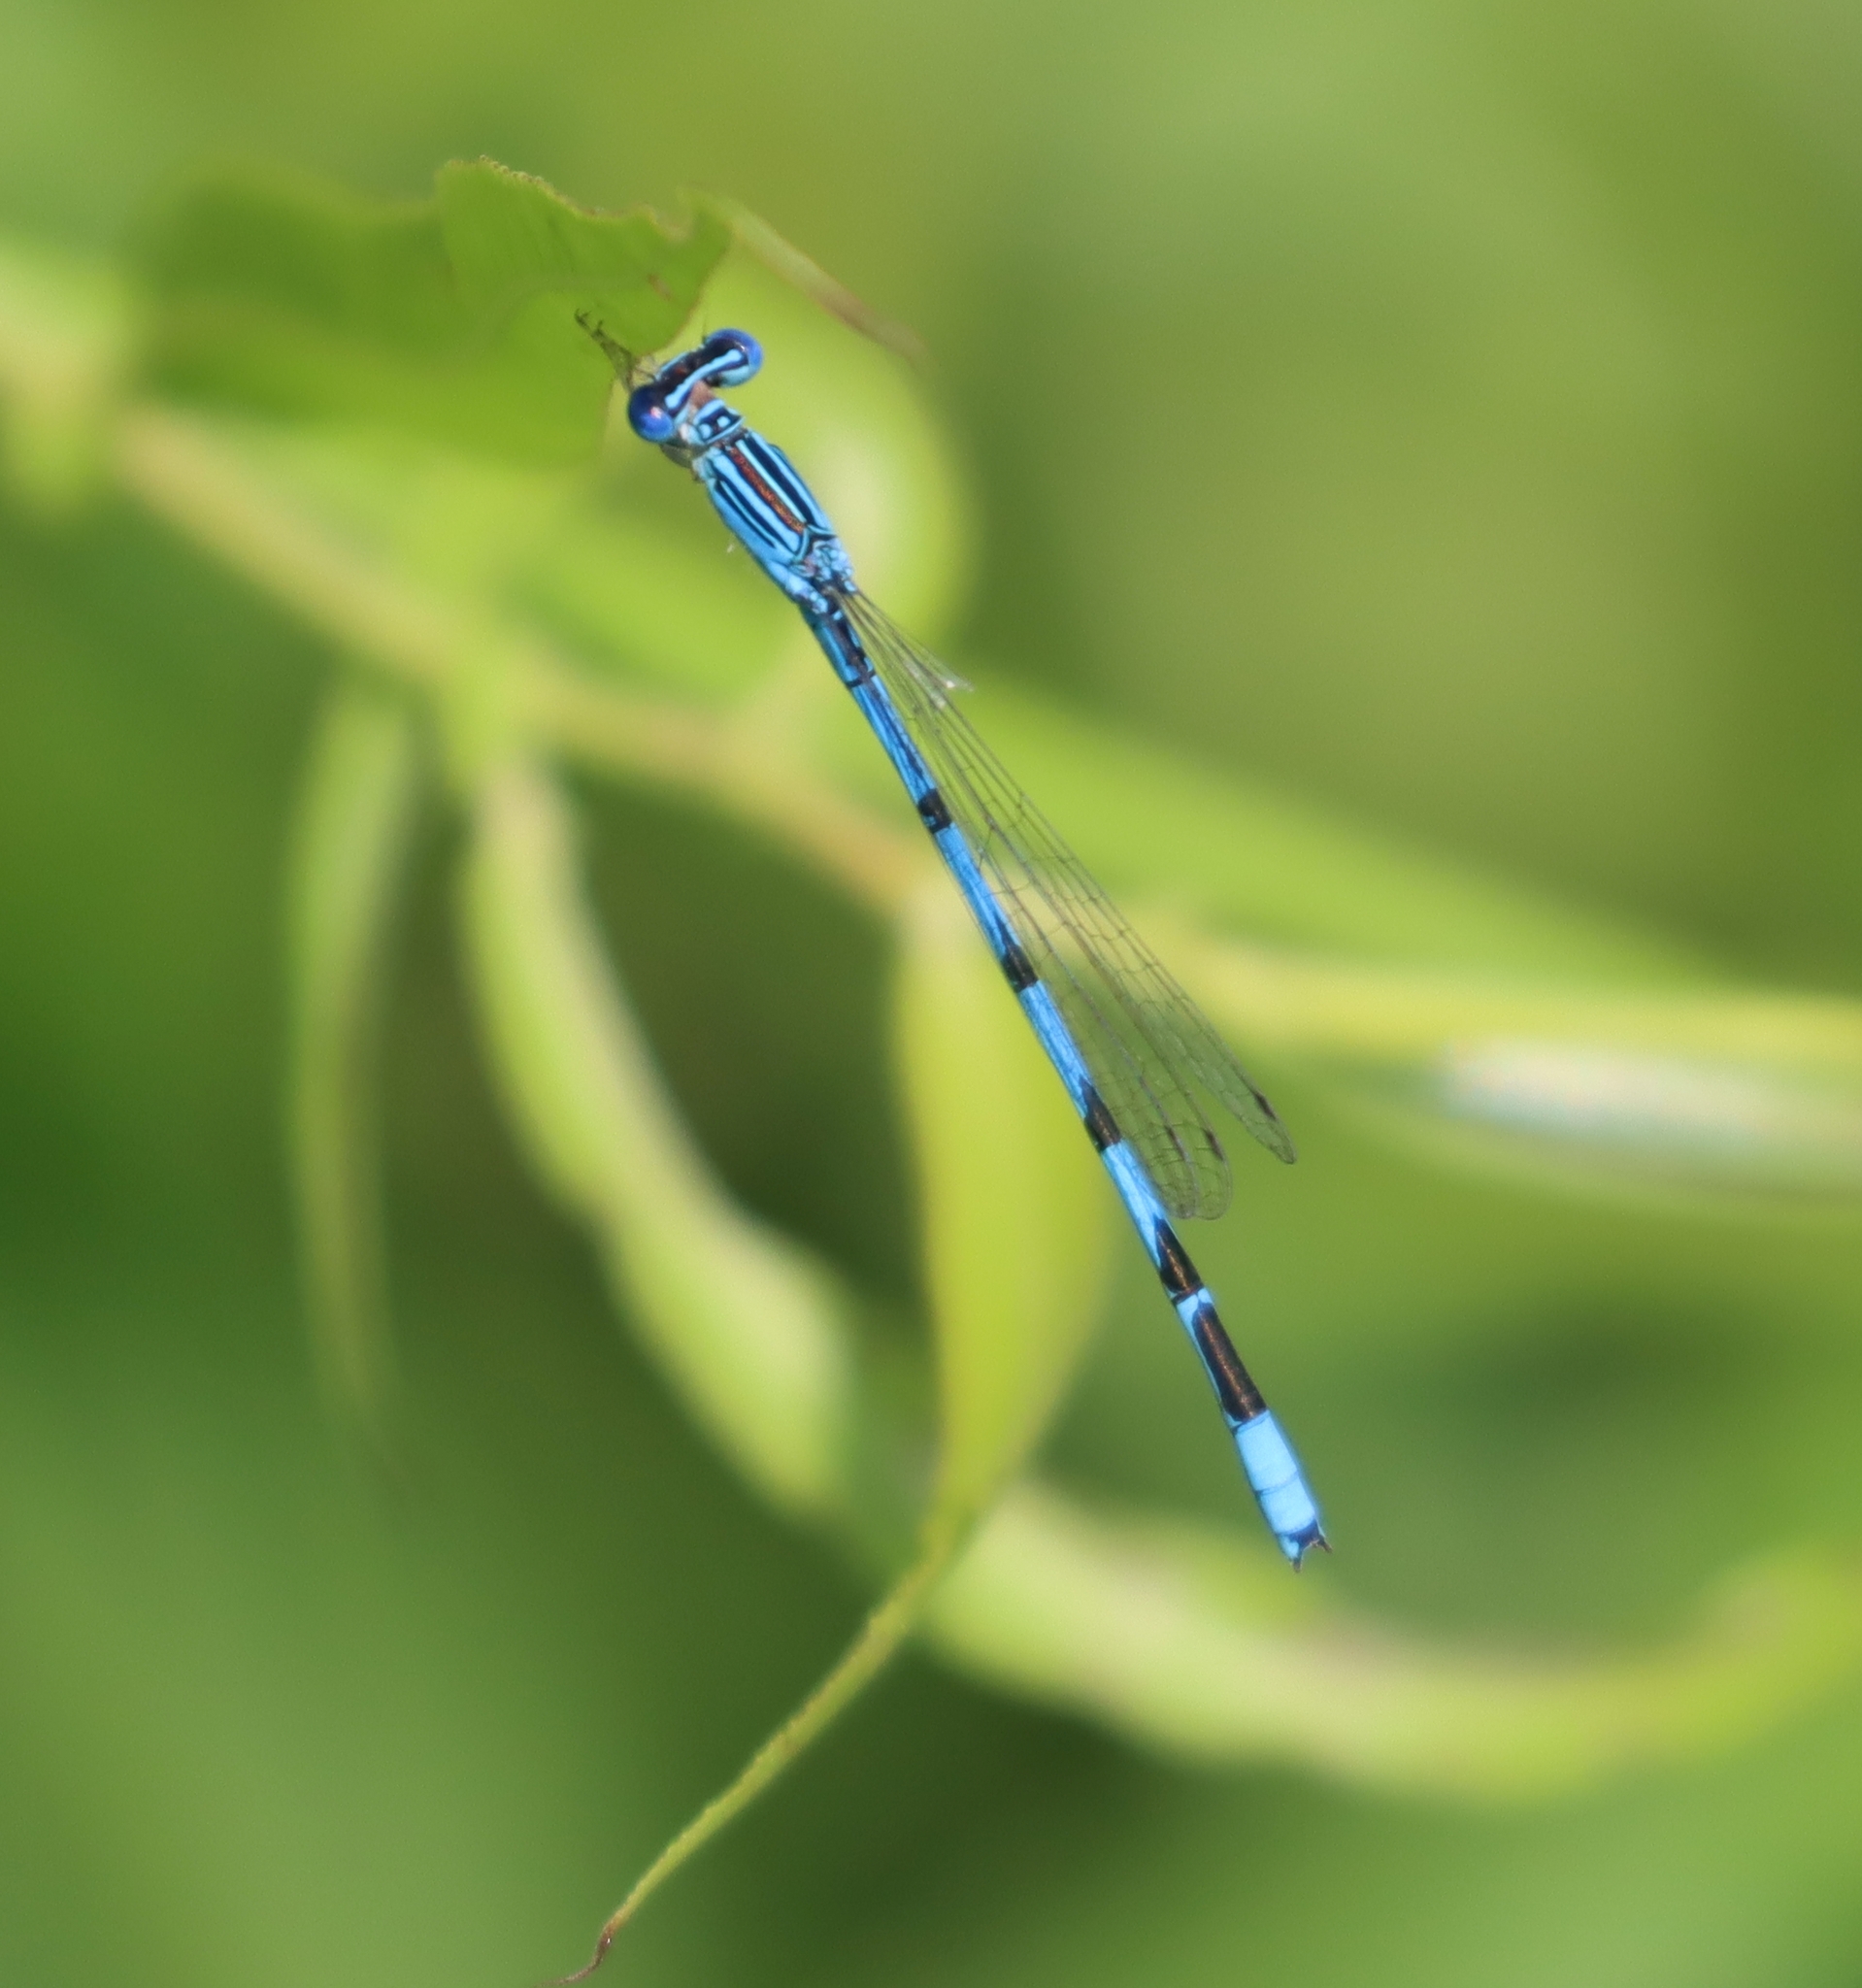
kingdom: Animalia
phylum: Arthropoda
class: Insecta
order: Odonata
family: Coenagrionidae
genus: Enallagma
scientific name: Enallagma basidens
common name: Double-striped bluet
